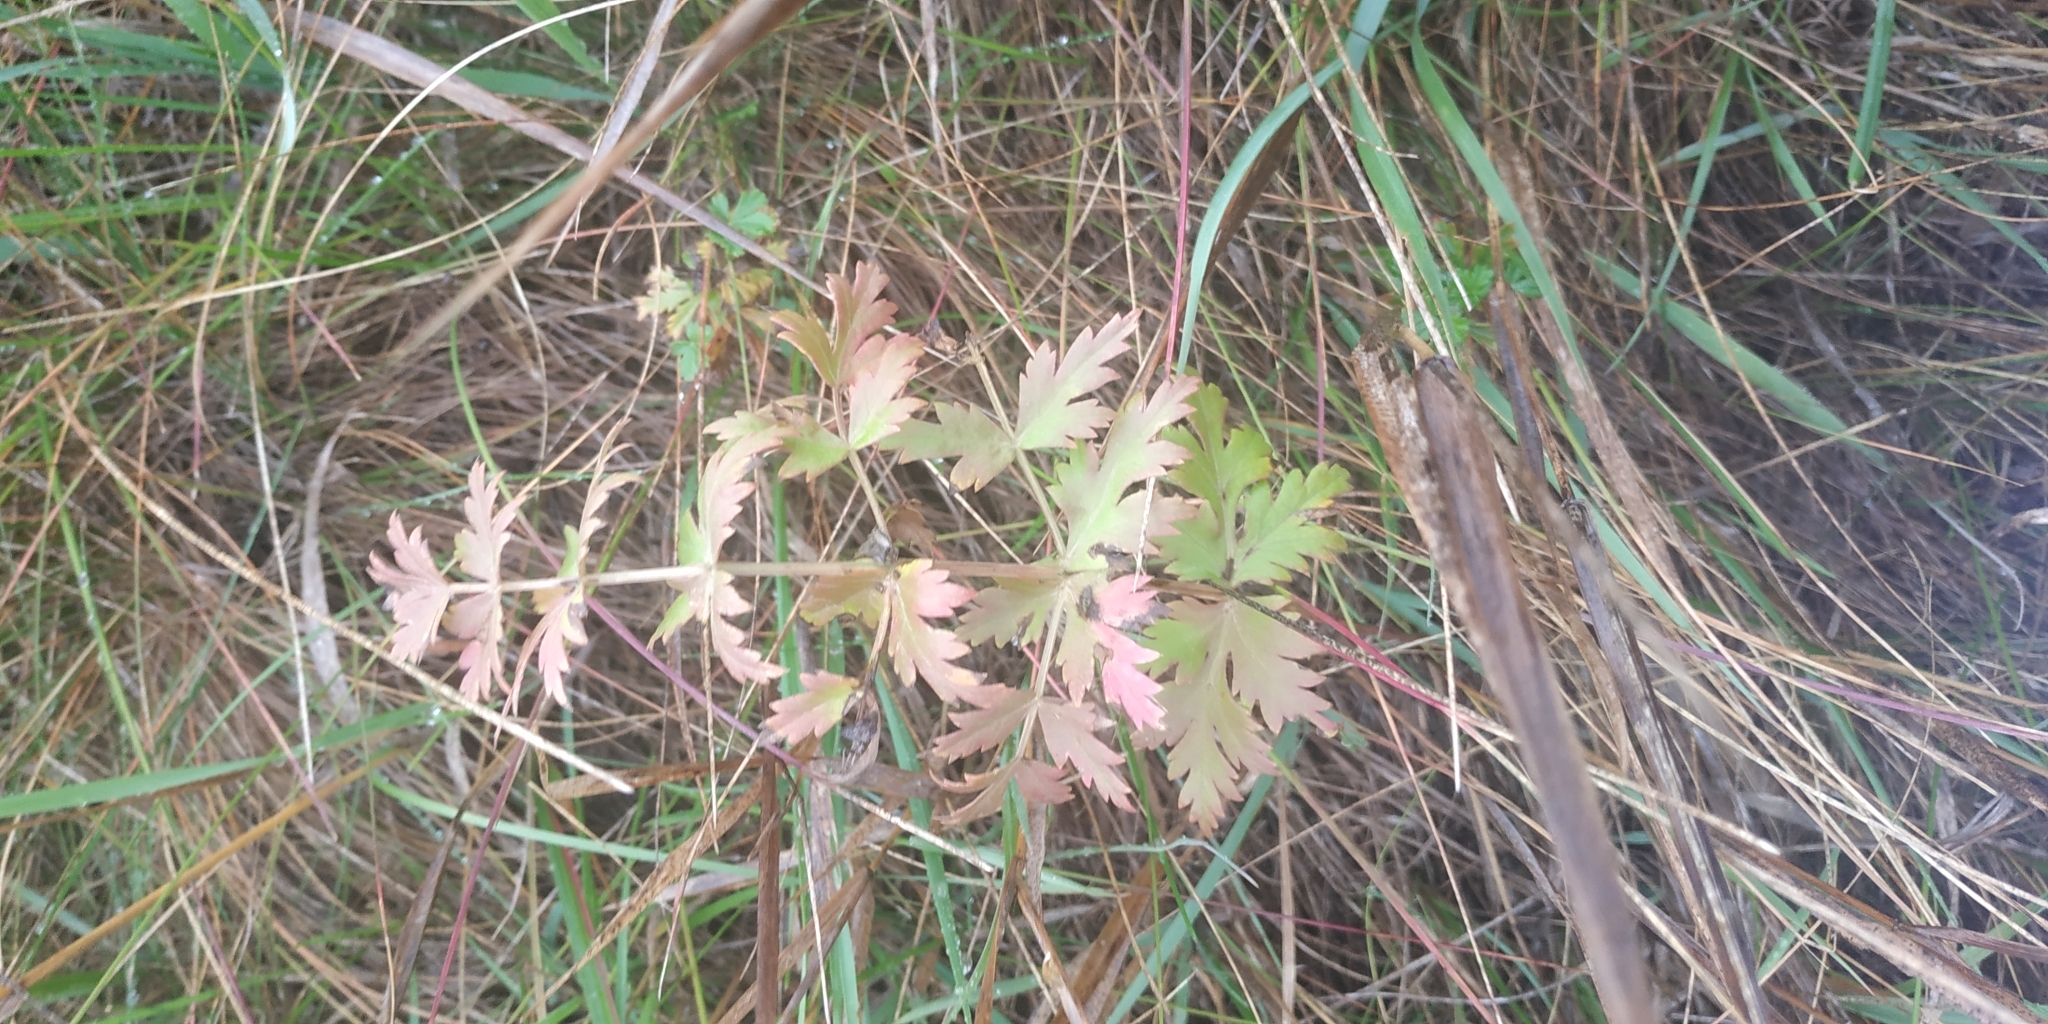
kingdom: Plantae
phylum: Tracheophyta
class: Magnoliopsida
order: Apiales
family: Apiaceae
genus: Seseli
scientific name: Seseli libanotis
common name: Mooncarrot
